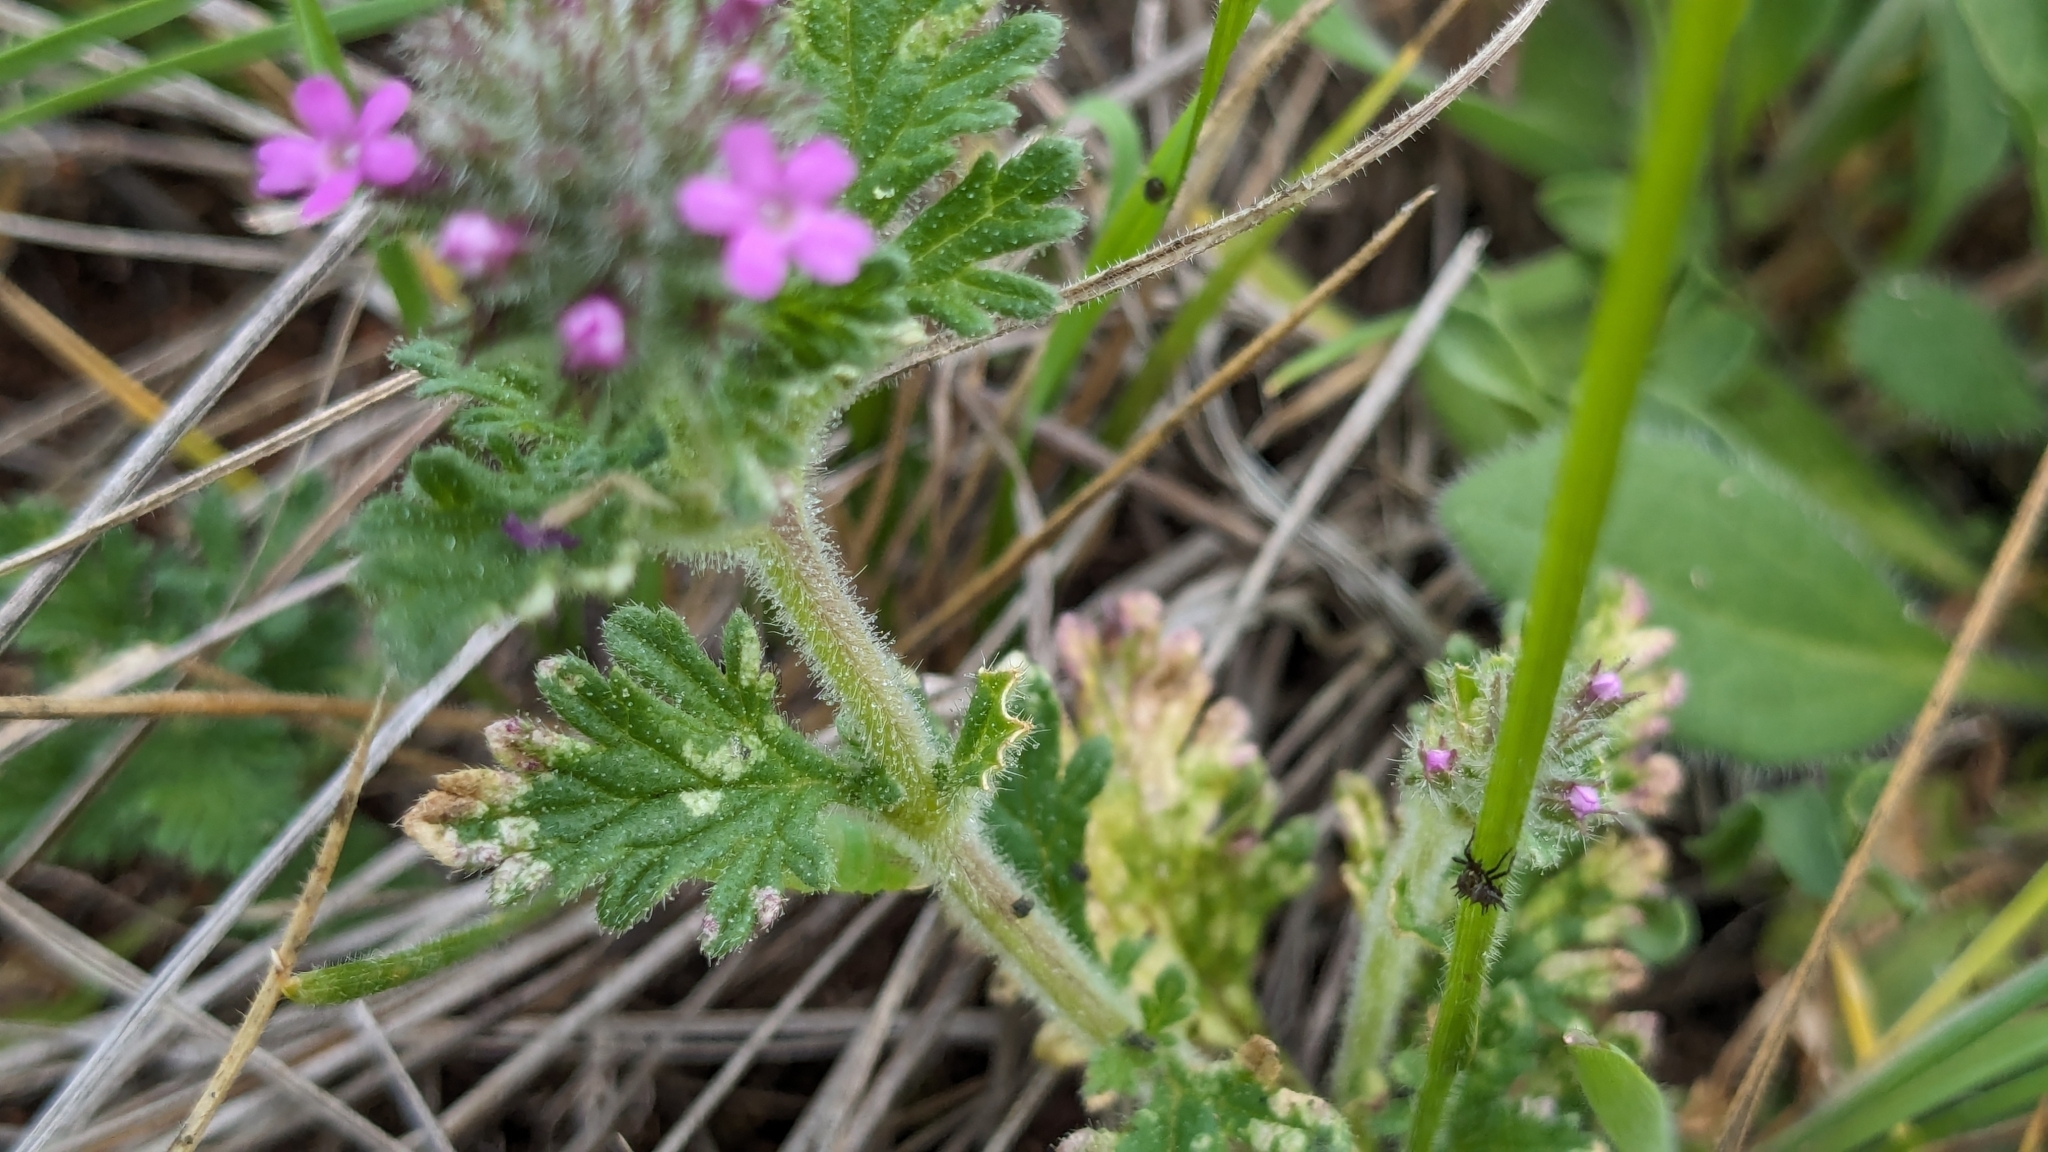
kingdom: Plantae
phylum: Tracheophyta
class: Magnoliopsida
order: Lamiales
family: Verbenaceae
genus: Verbena
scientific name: Verbena pumila
